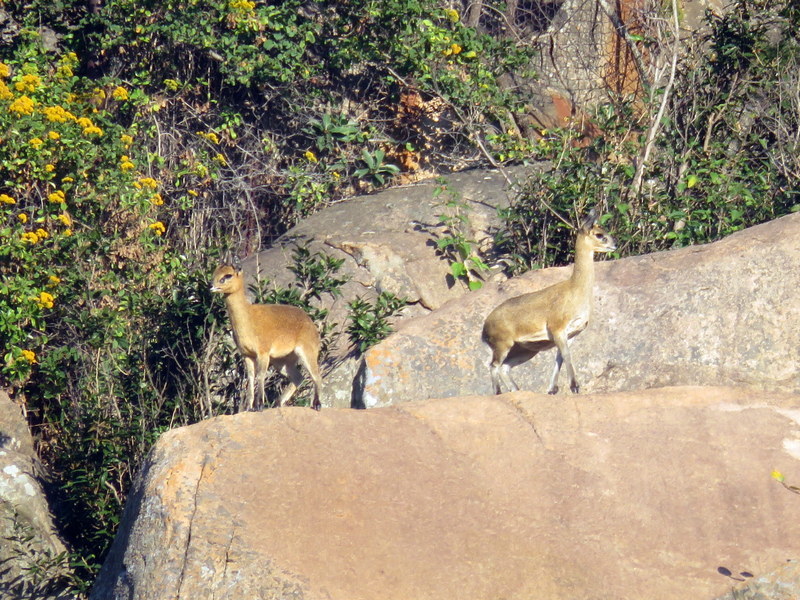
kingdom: Animalia
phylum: Chordata
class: Mammalia
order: Artiodactyla
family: Bovidae
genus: Oreotragus
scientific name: Oreotragus oreotragus
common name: Klipspringer
